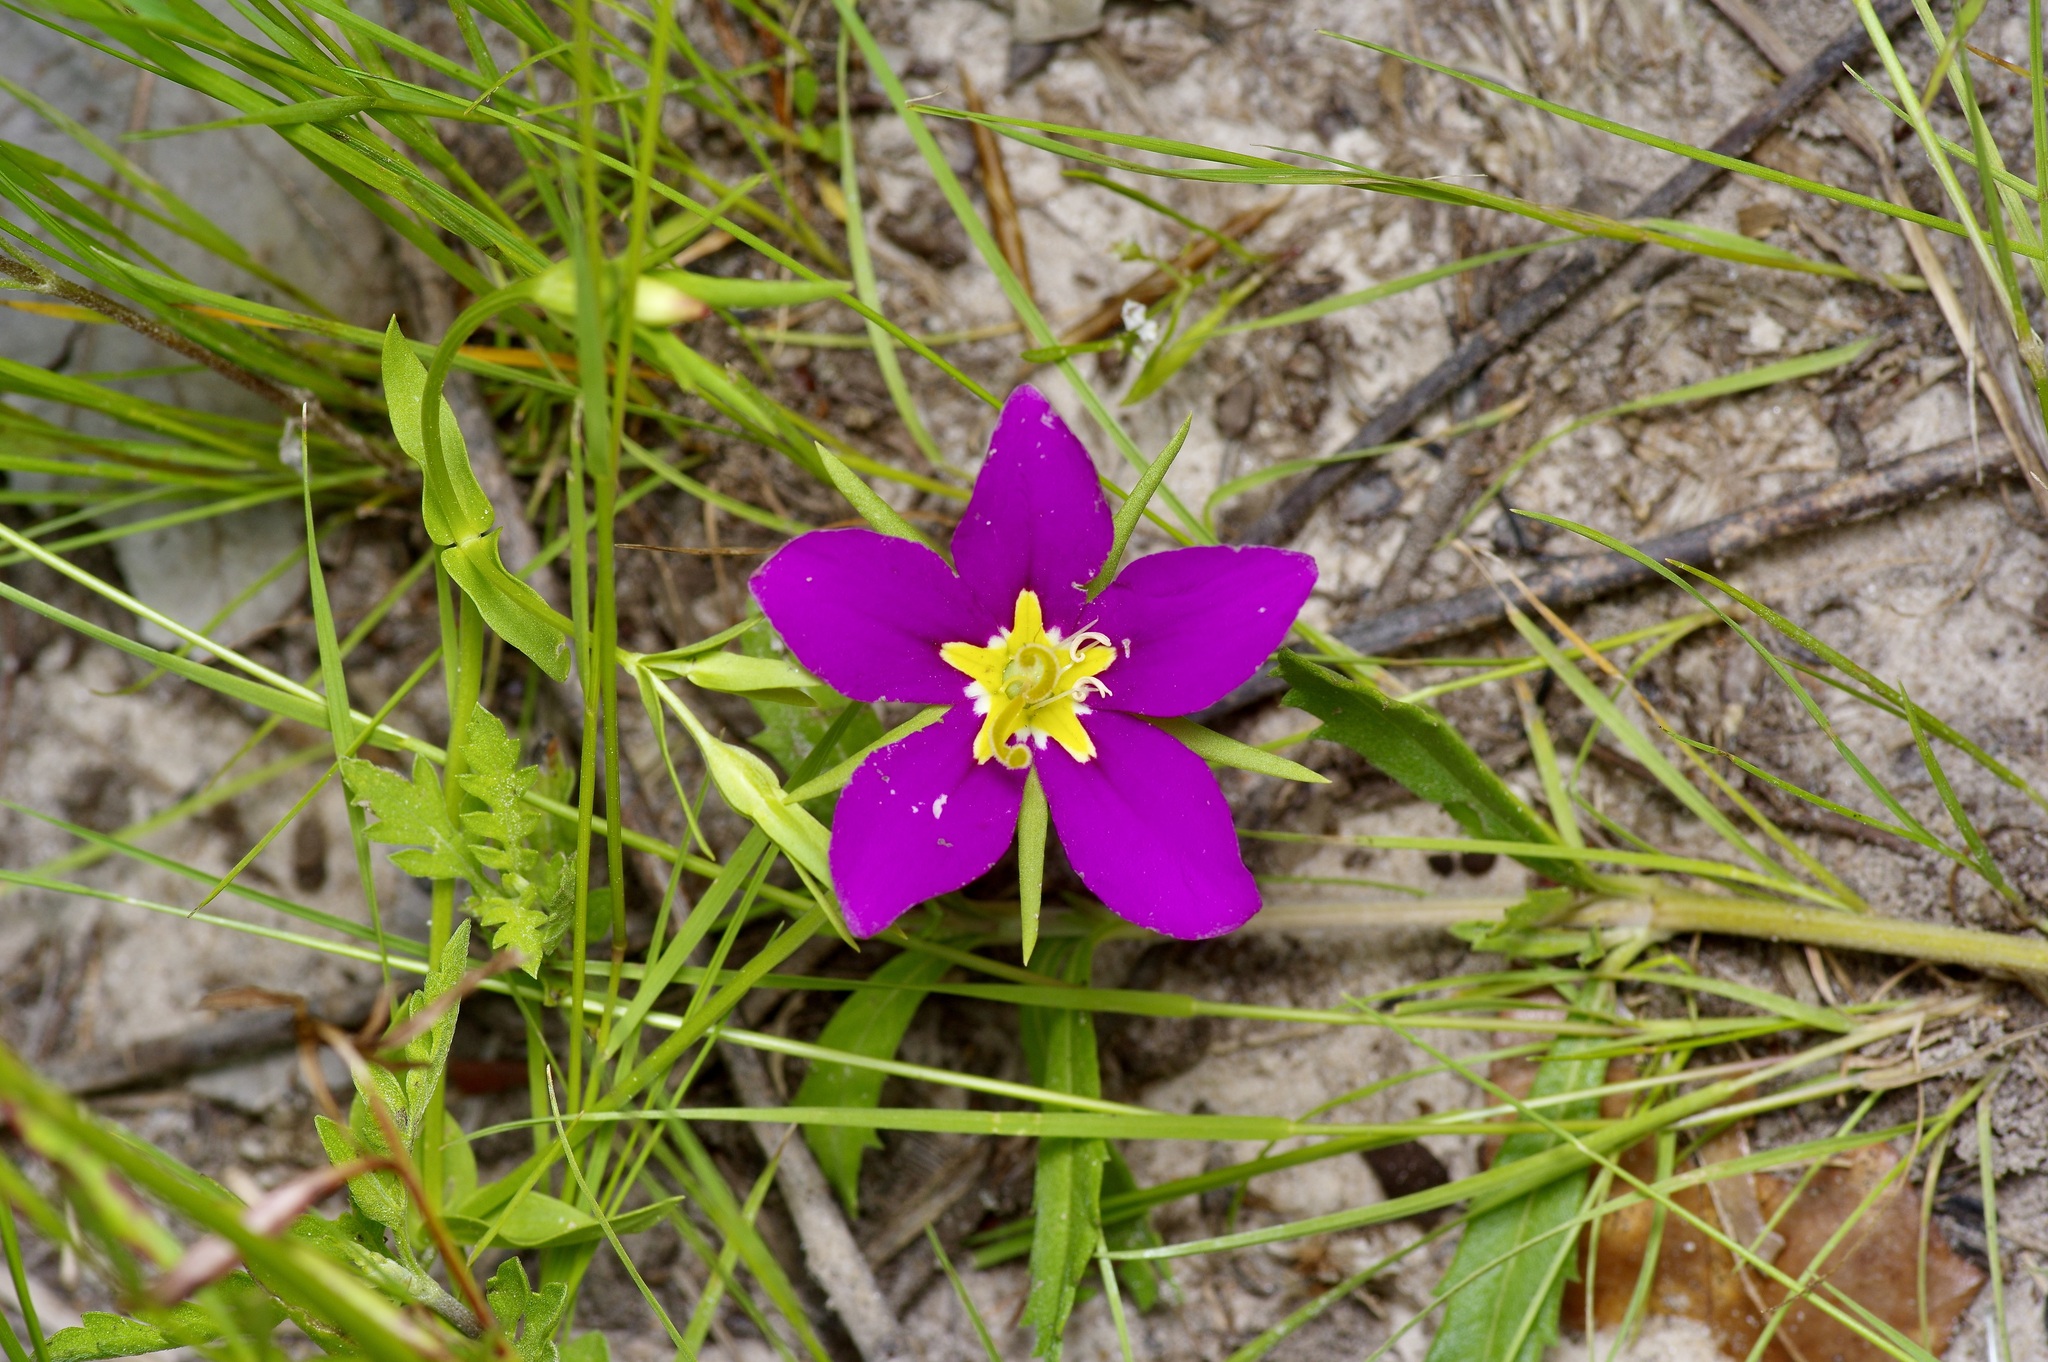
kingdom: Plantae
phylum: Tracheophyta
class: Magnoliopsida
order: Gentianales
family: Gentianaceae
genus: Sabatia
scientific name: Sabatia campestris
